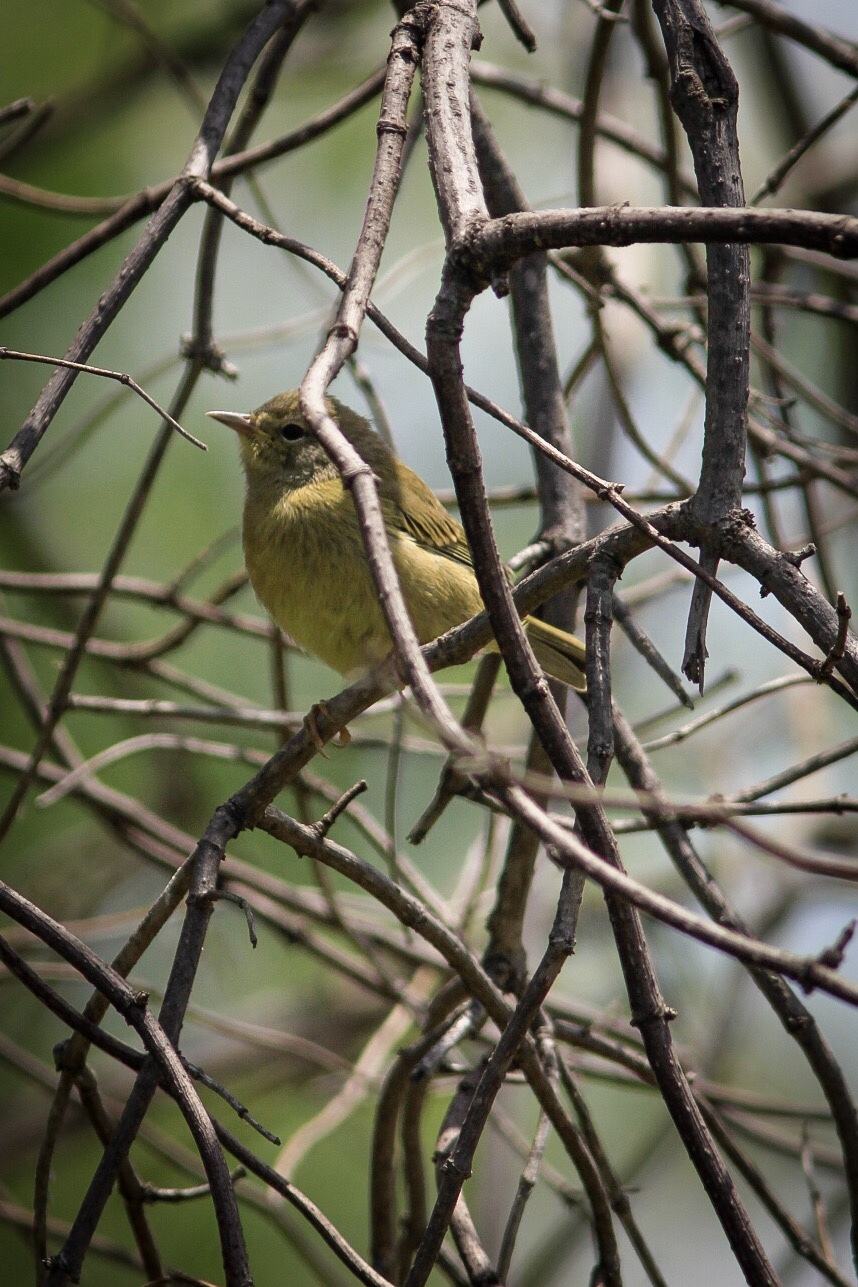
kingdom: Animalia
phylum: Chordata
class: Aves
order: Passeriformes
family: Parulidae
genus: Leiothlypis
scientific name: Leiothlypis celata
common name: Orange-crowned warbler
